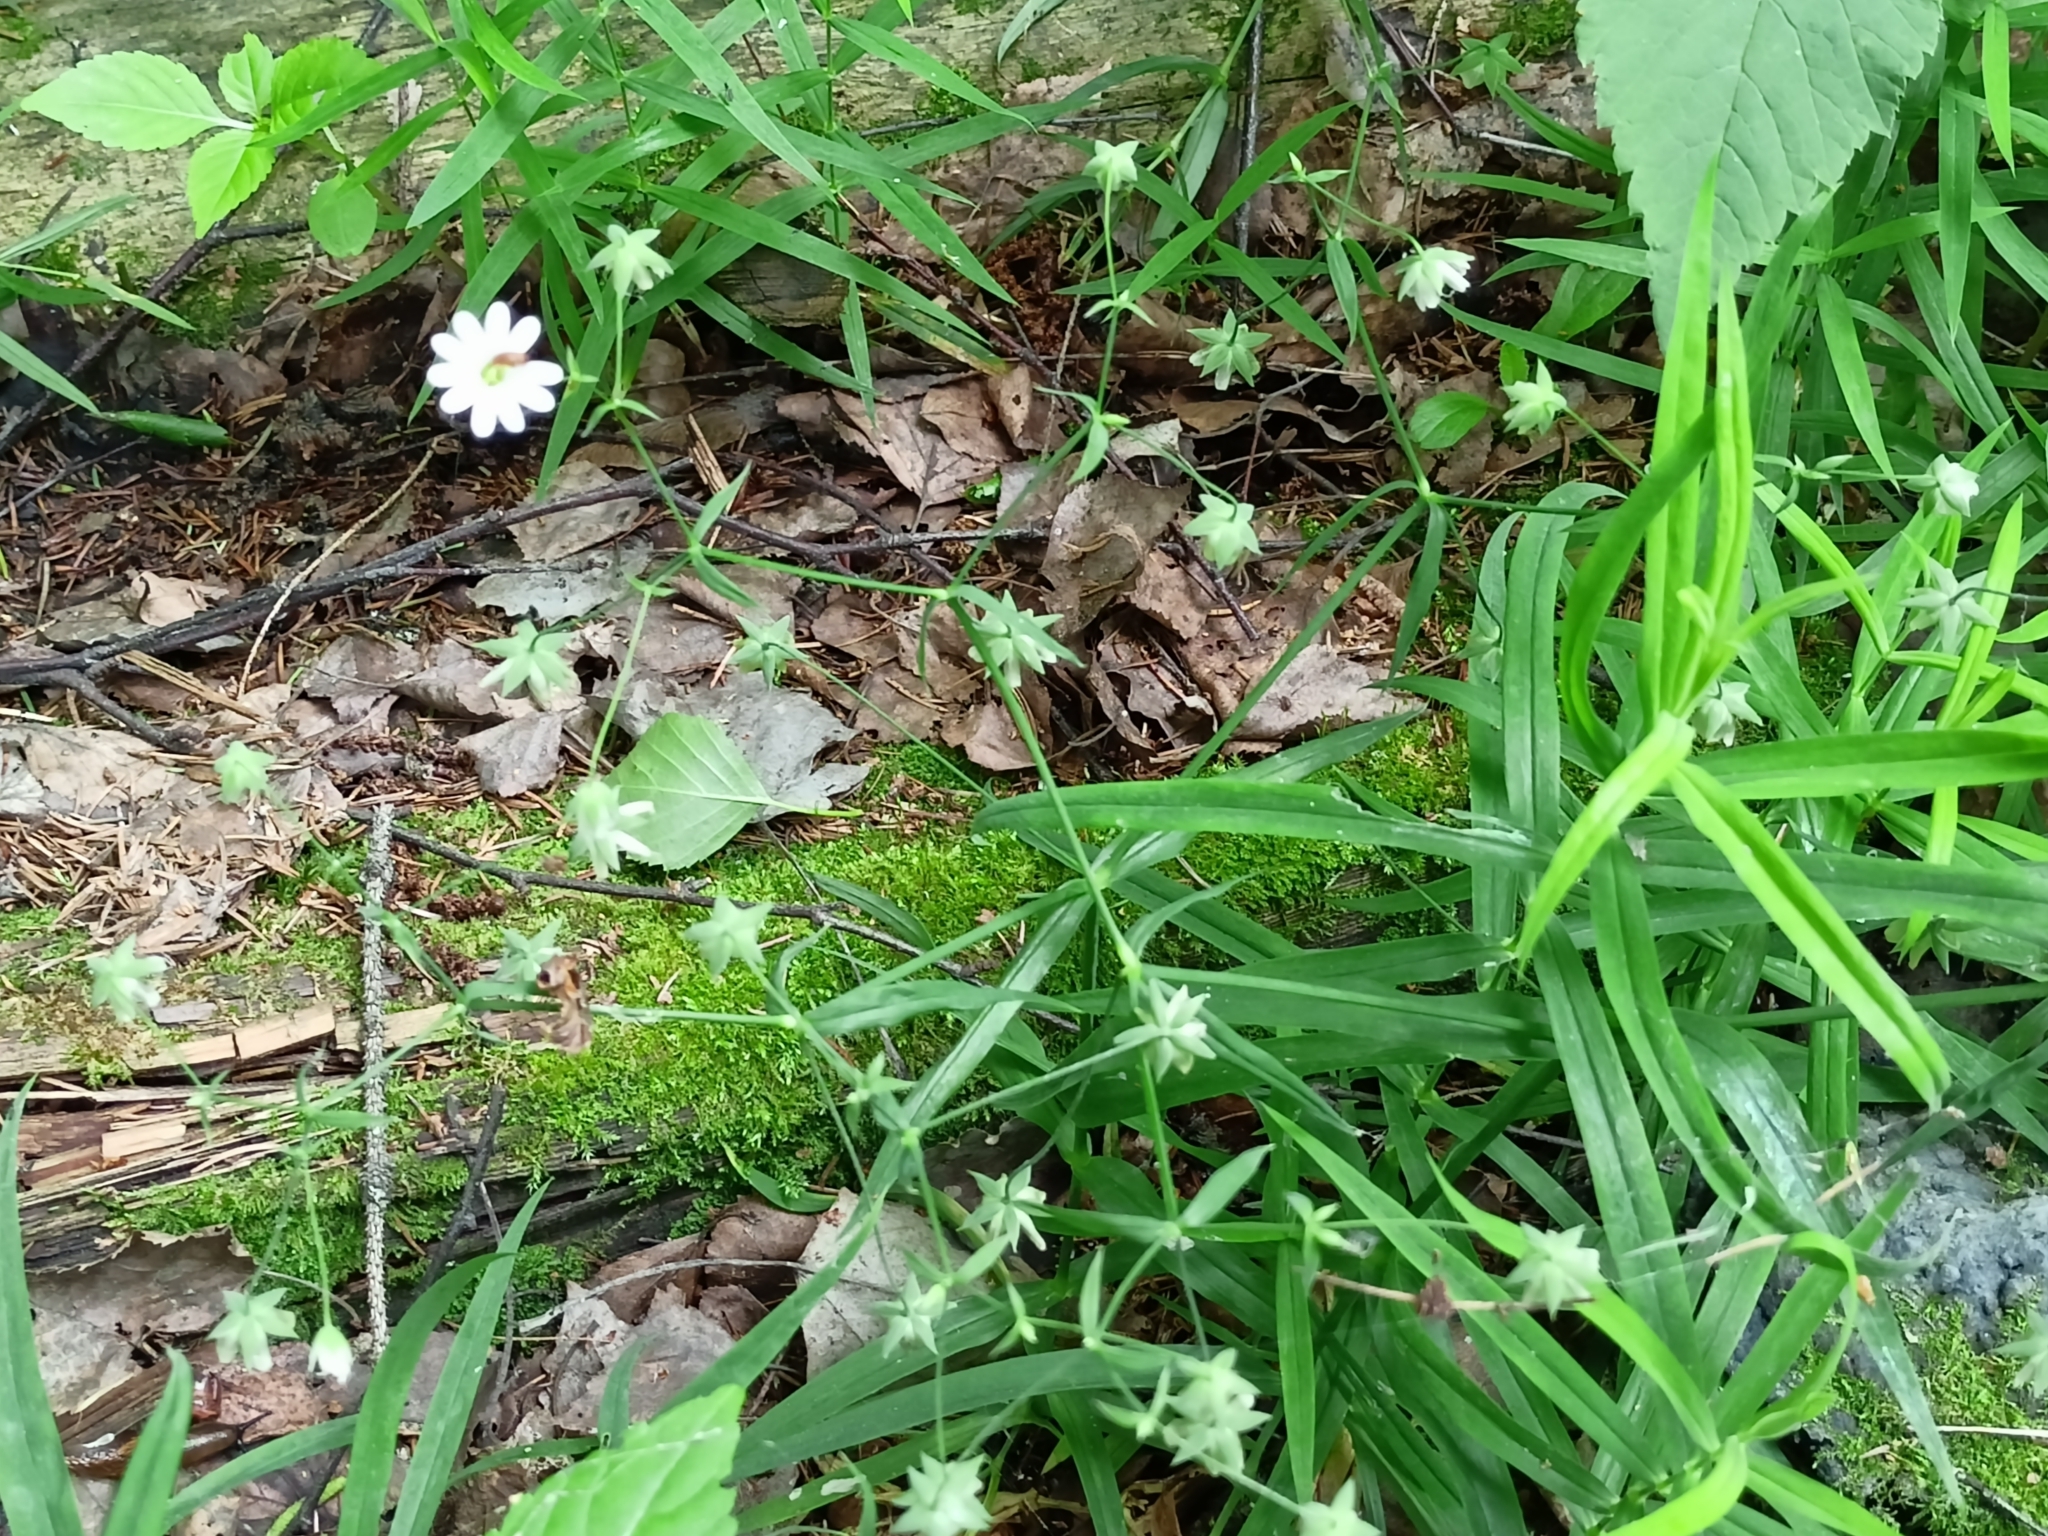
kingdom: Plantae
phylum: Tracheophyta
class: Magnoliopsida
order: Caryophyllales
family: Caryophyllaceae
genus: Rabelera
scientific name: Rabelera holostea
